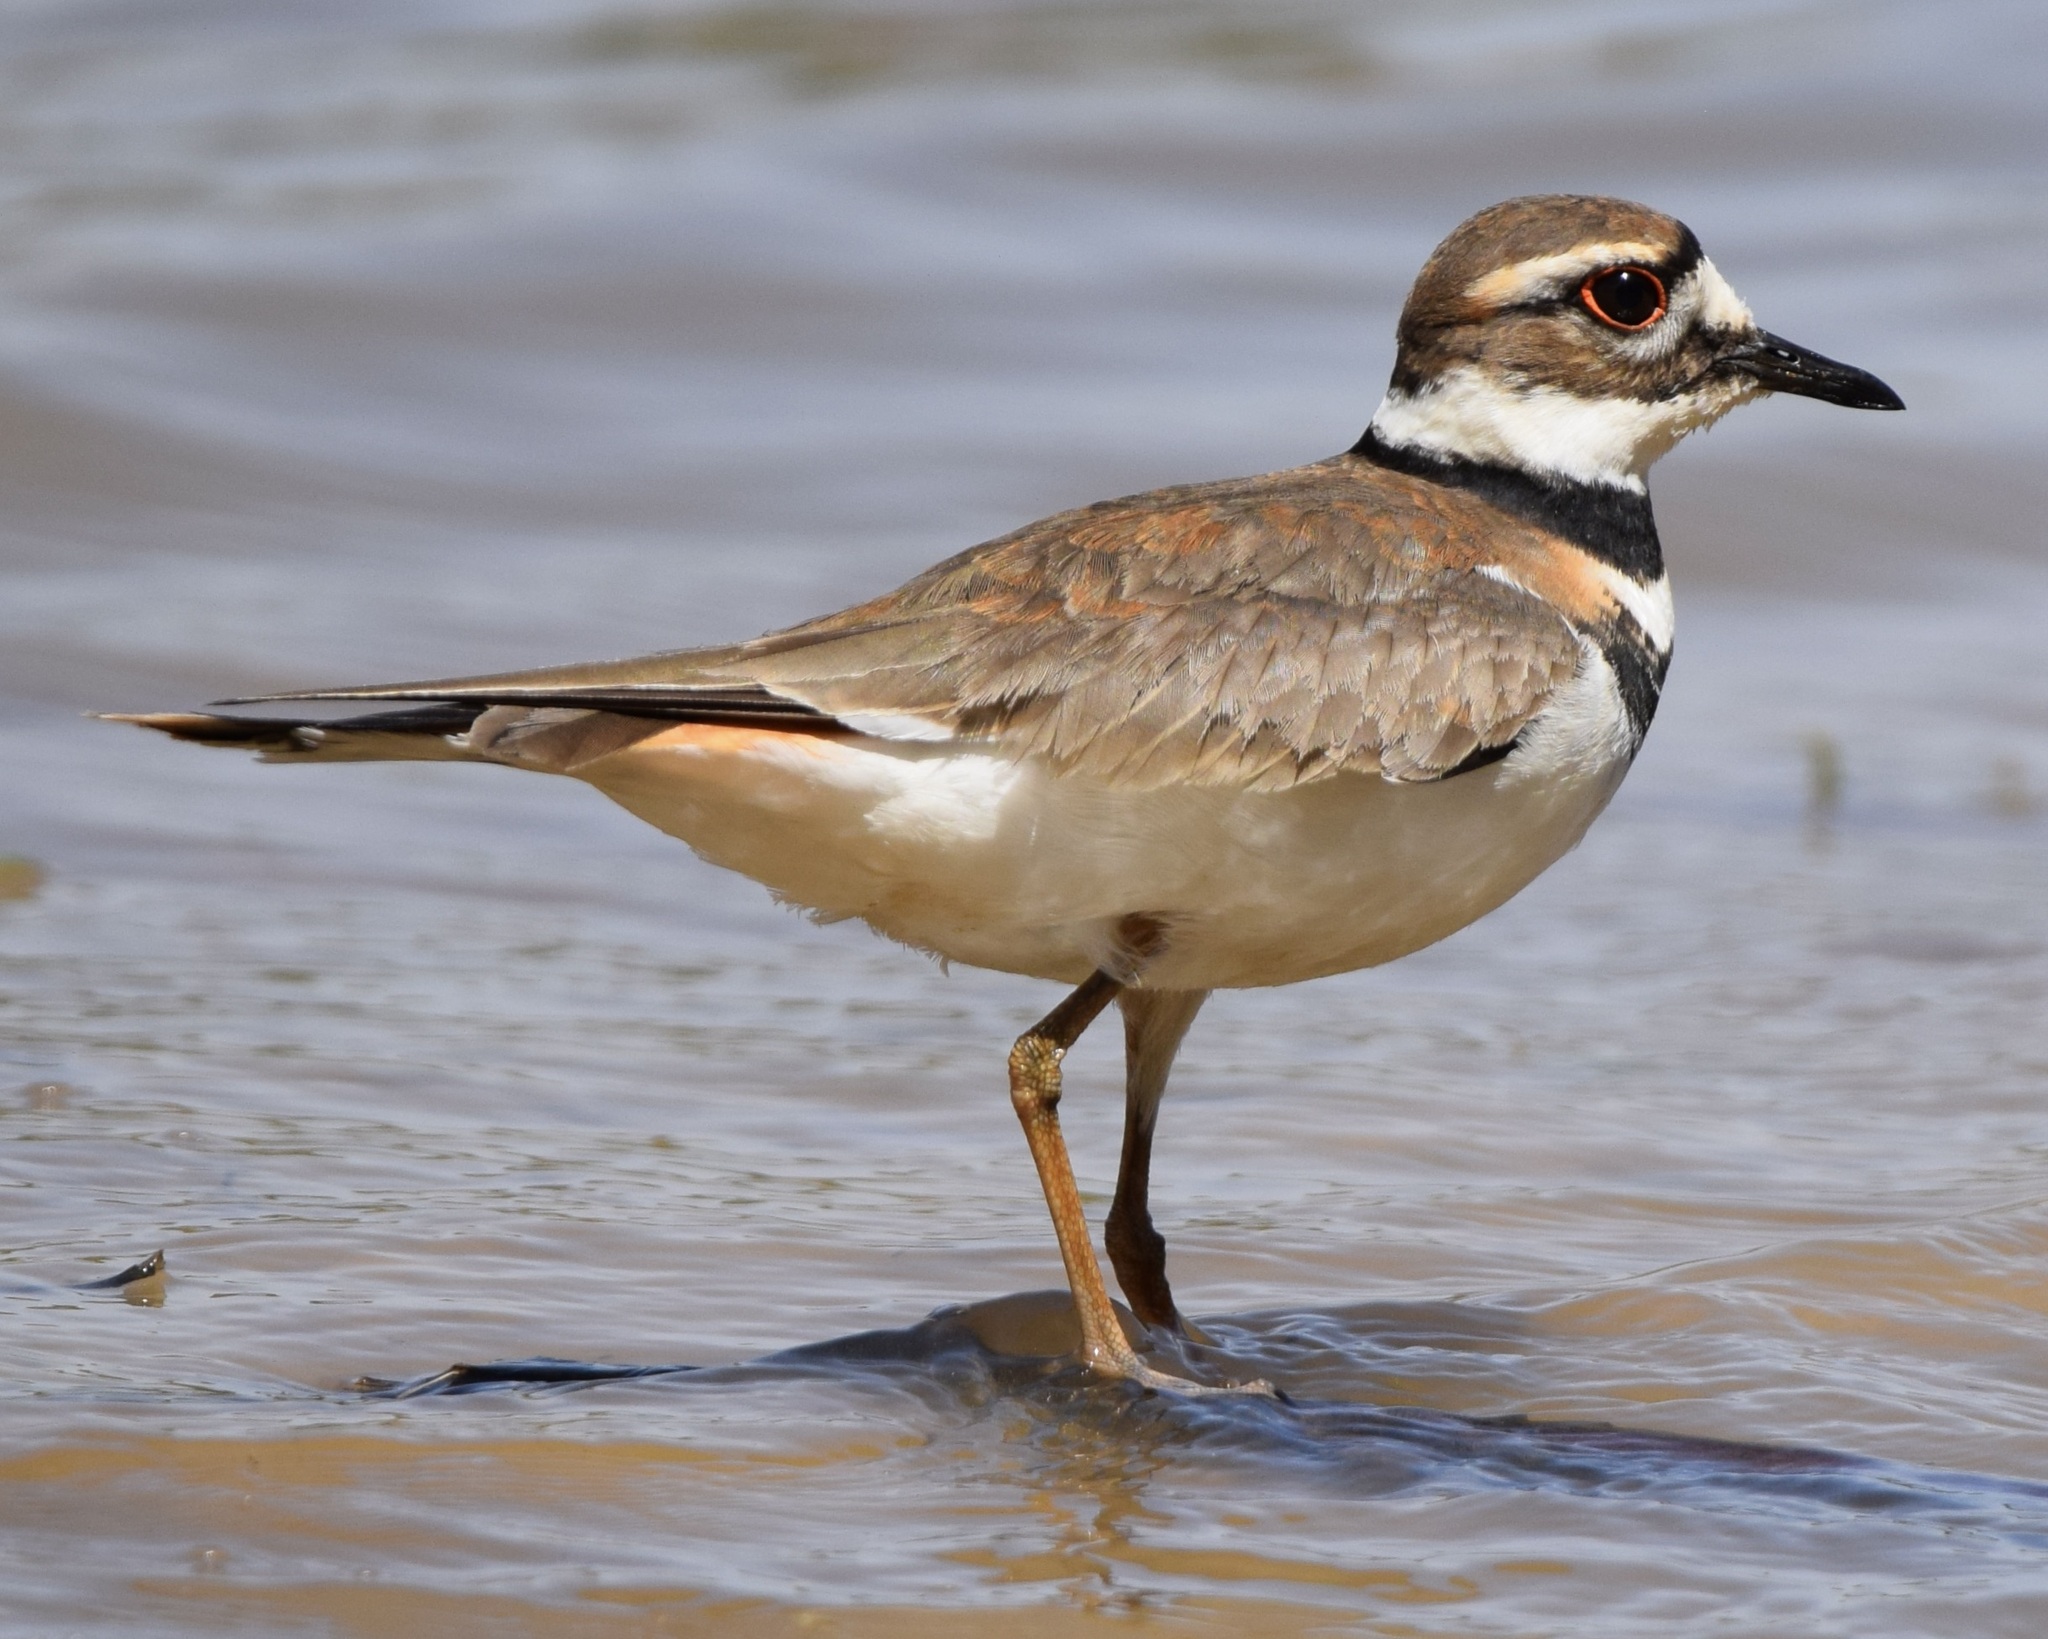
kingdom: Animalia
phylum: Chordata
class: Aves
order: Charadriiformes
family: Charadriidae
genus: Charadrius
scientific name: Charadrius vociferus
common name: Killdeer
